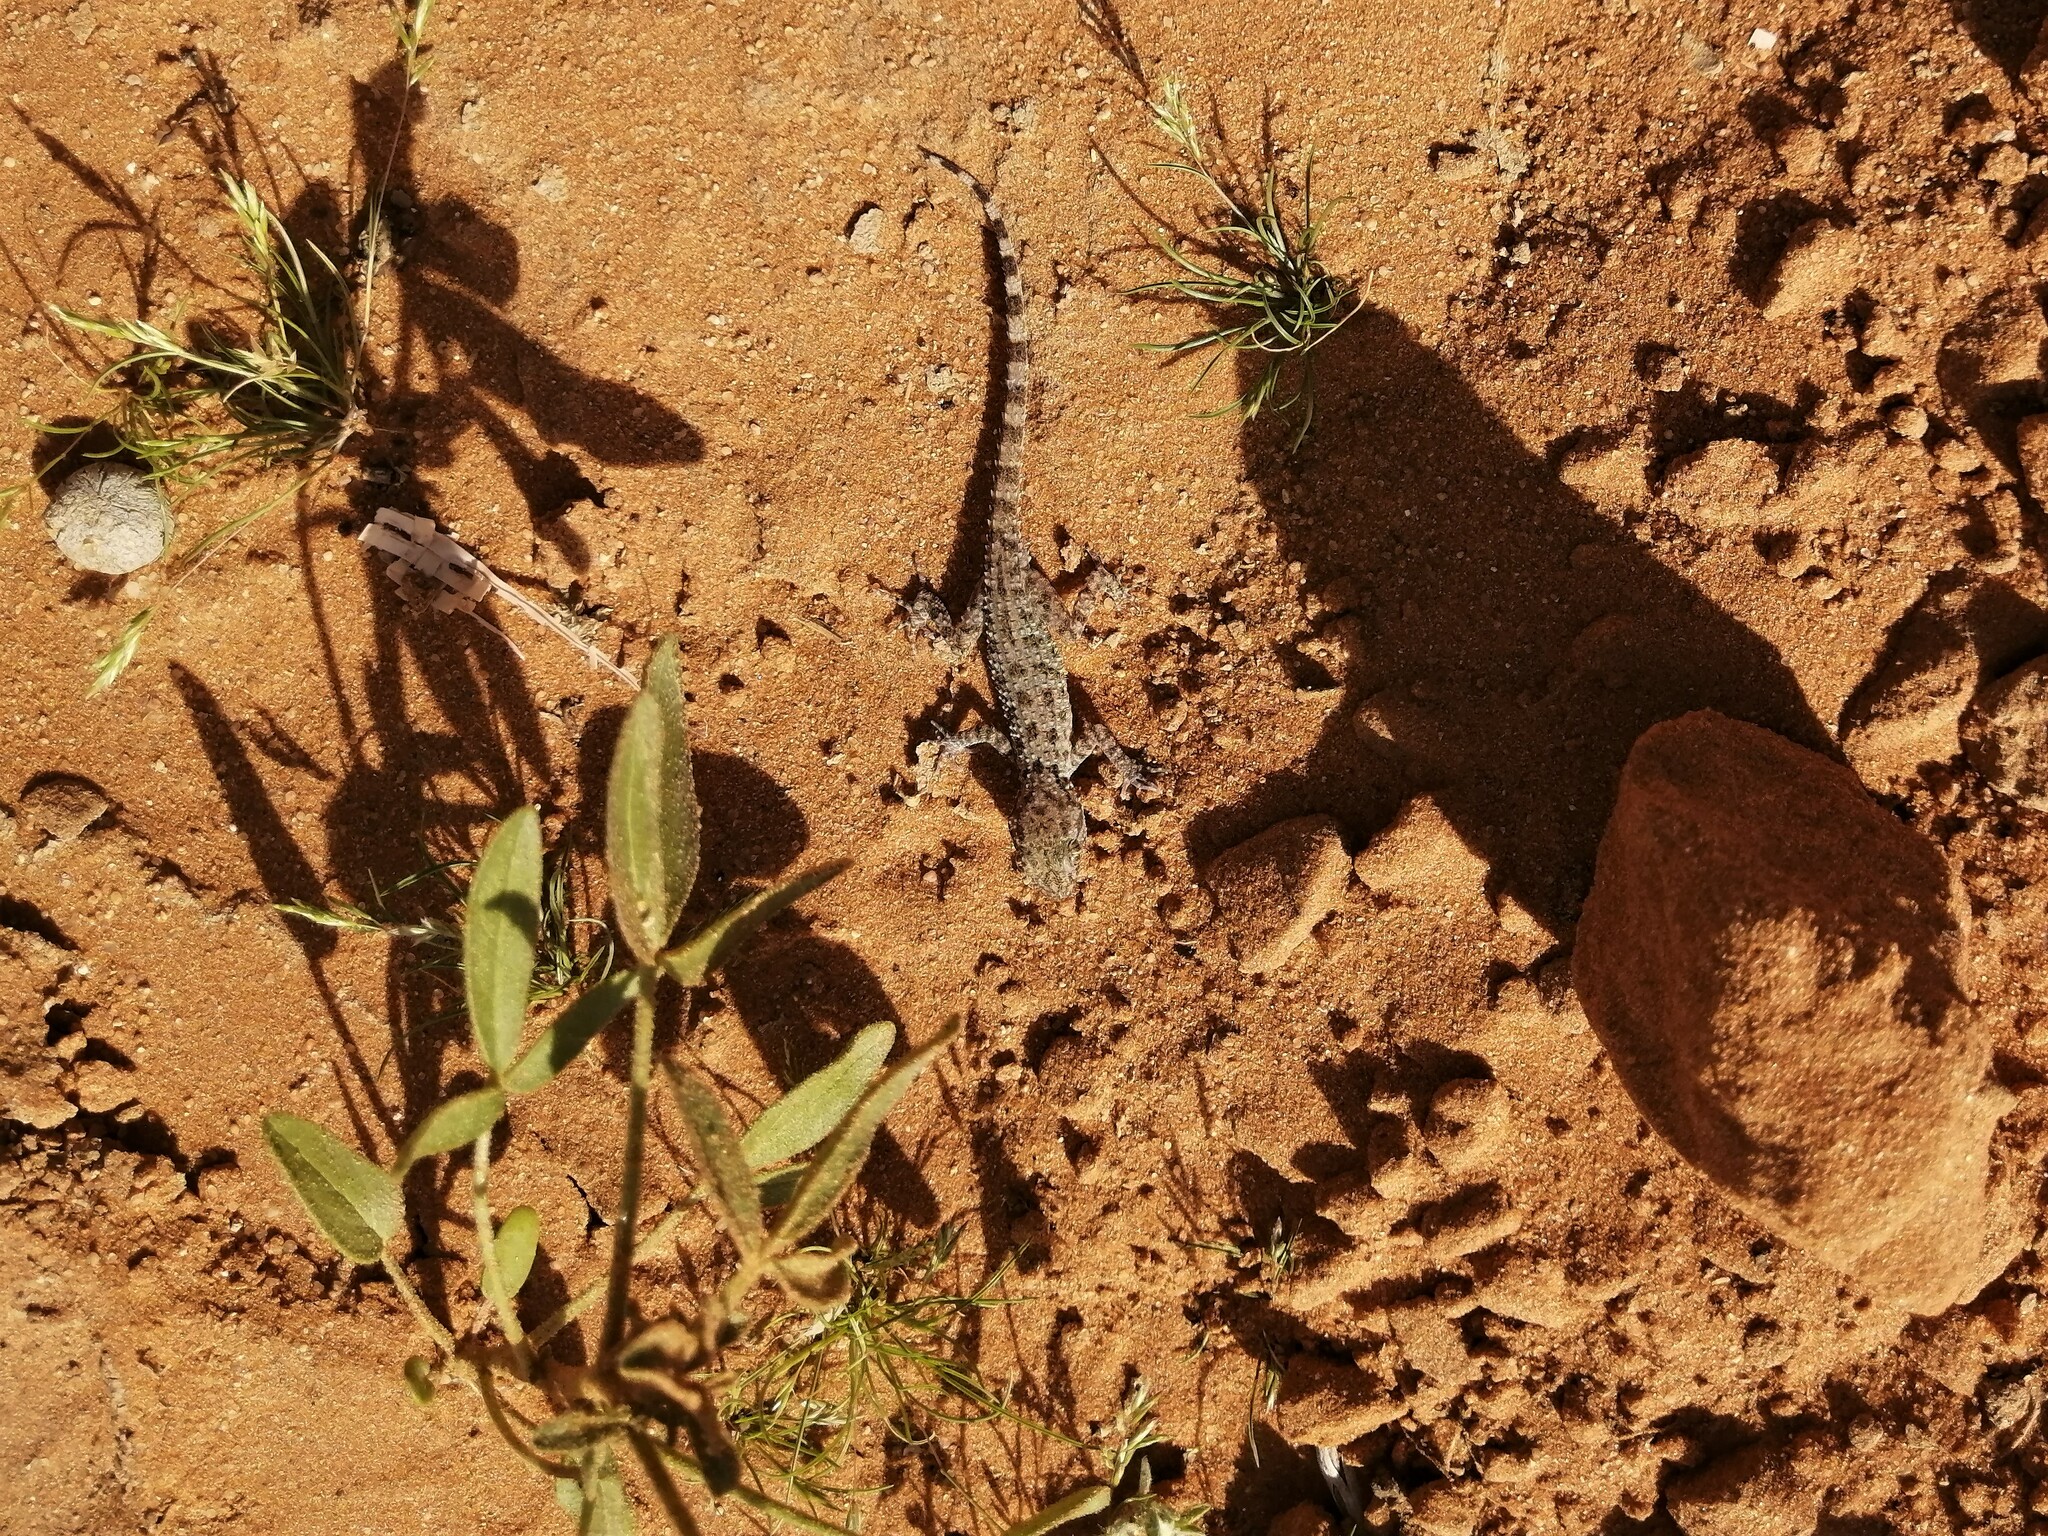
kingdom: Animalia
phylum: Chordata
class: Squamata
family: Gekkonidae
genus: Bunopus
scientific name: Bunopus tuberculatus
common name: Southern tuberculated gecko
